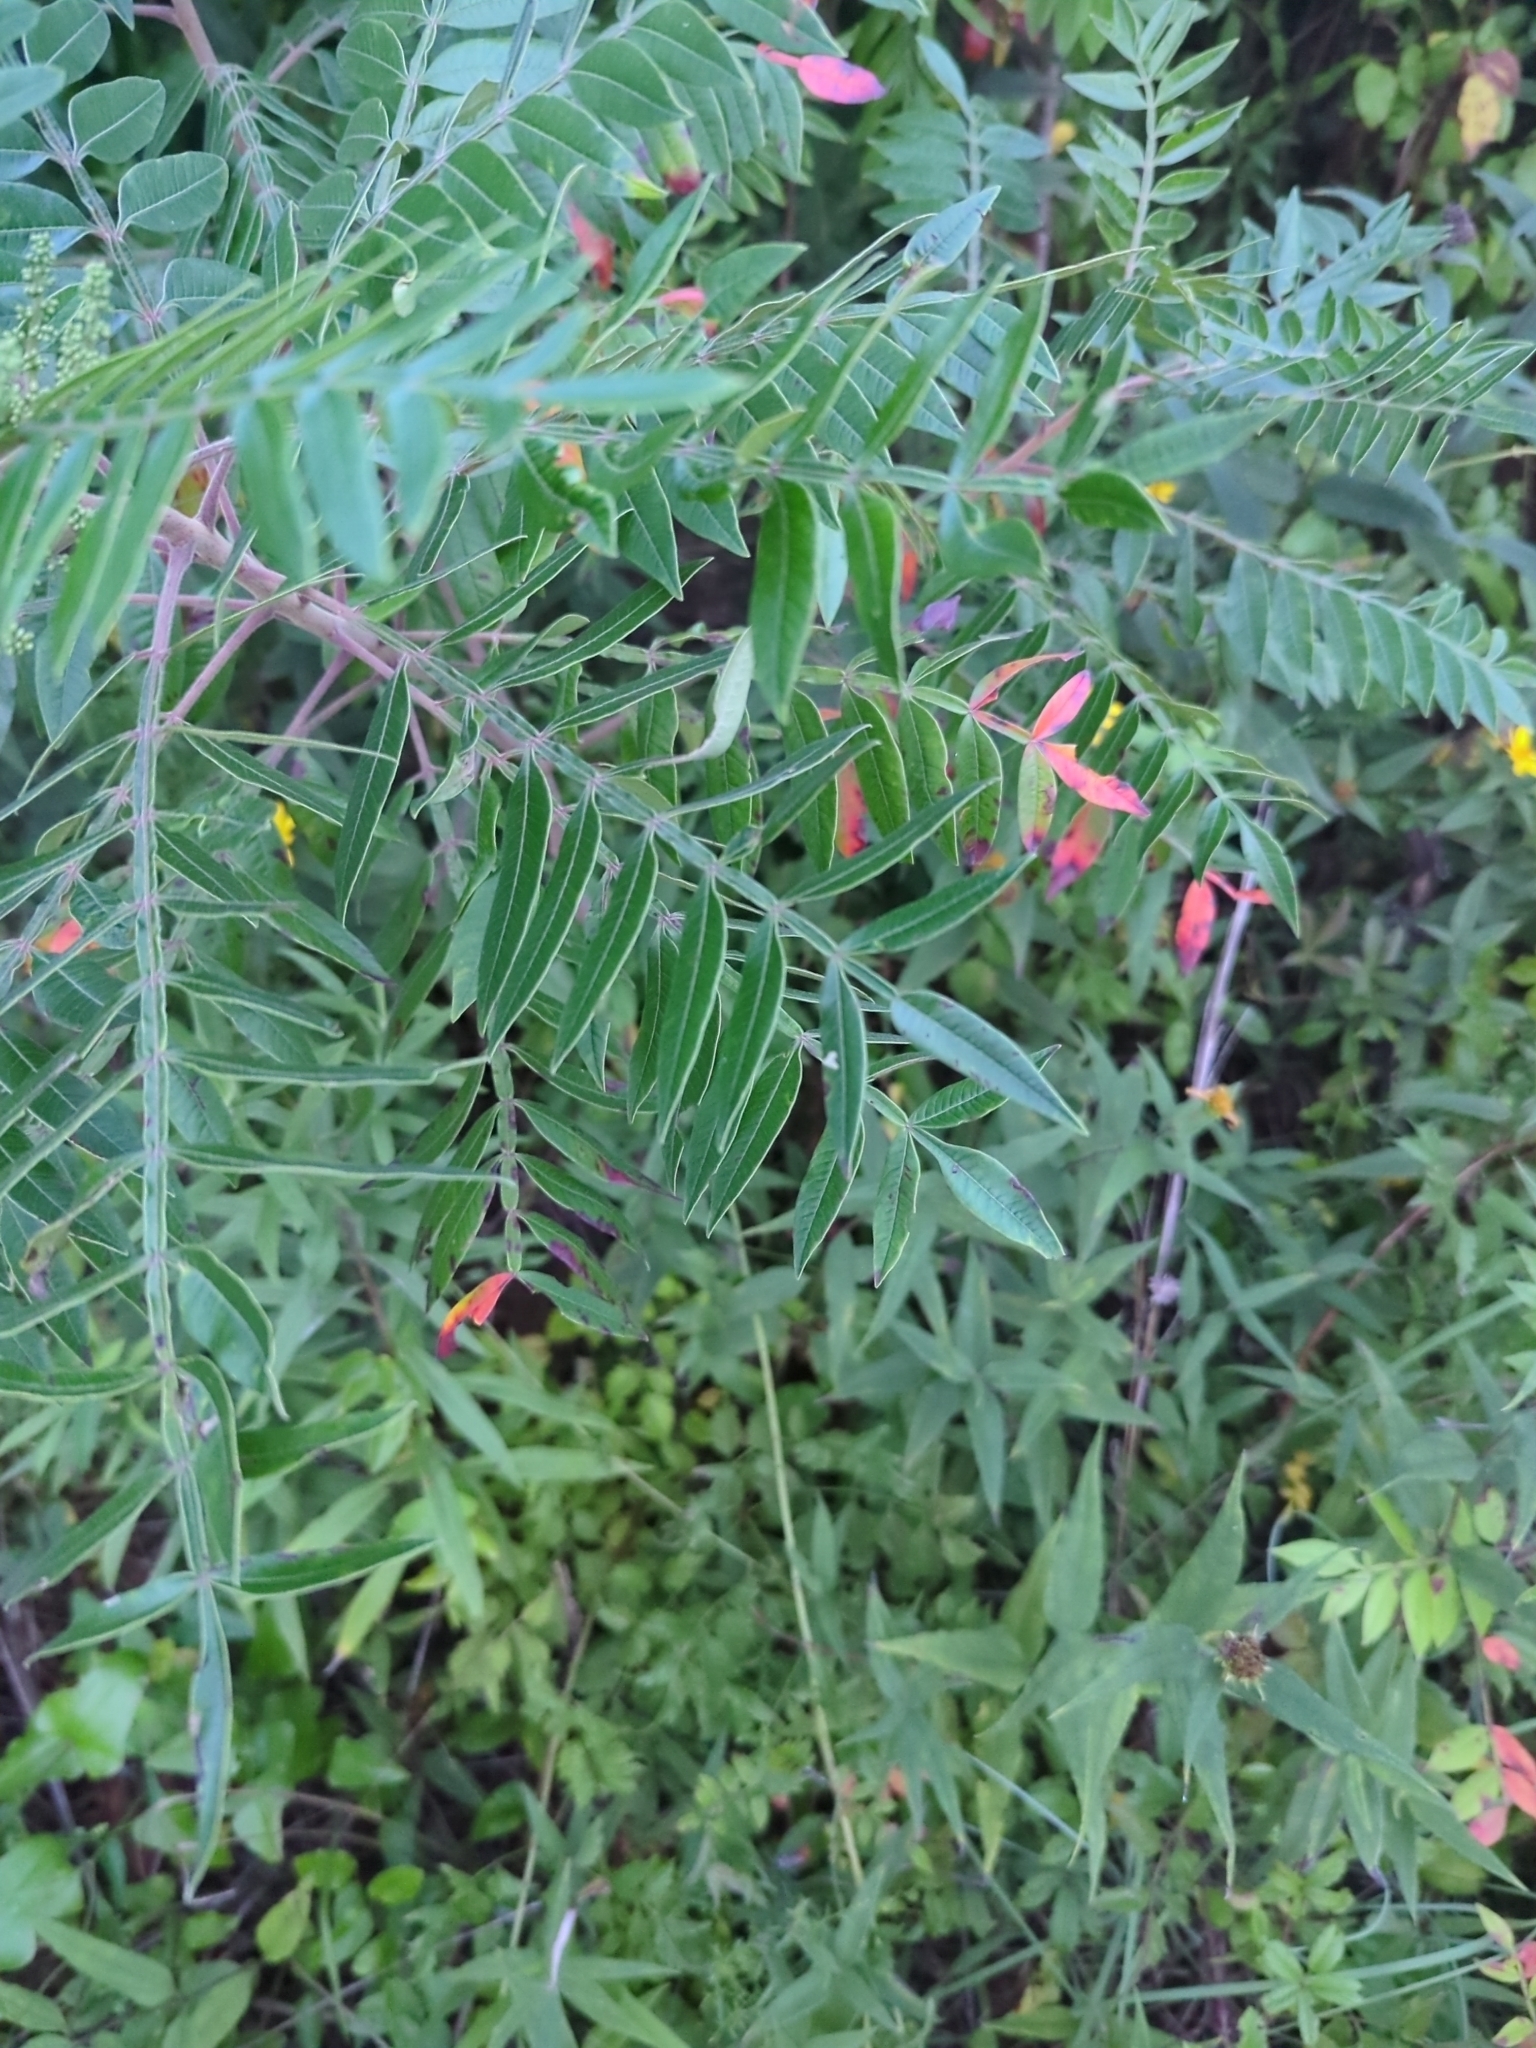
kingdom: Plantae
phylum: Tracheophyta
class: Magnoliopsida
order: Sapindales
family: Anacardiaceae
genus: Rhus
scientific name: Rhus copallina
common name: Shining sumac
